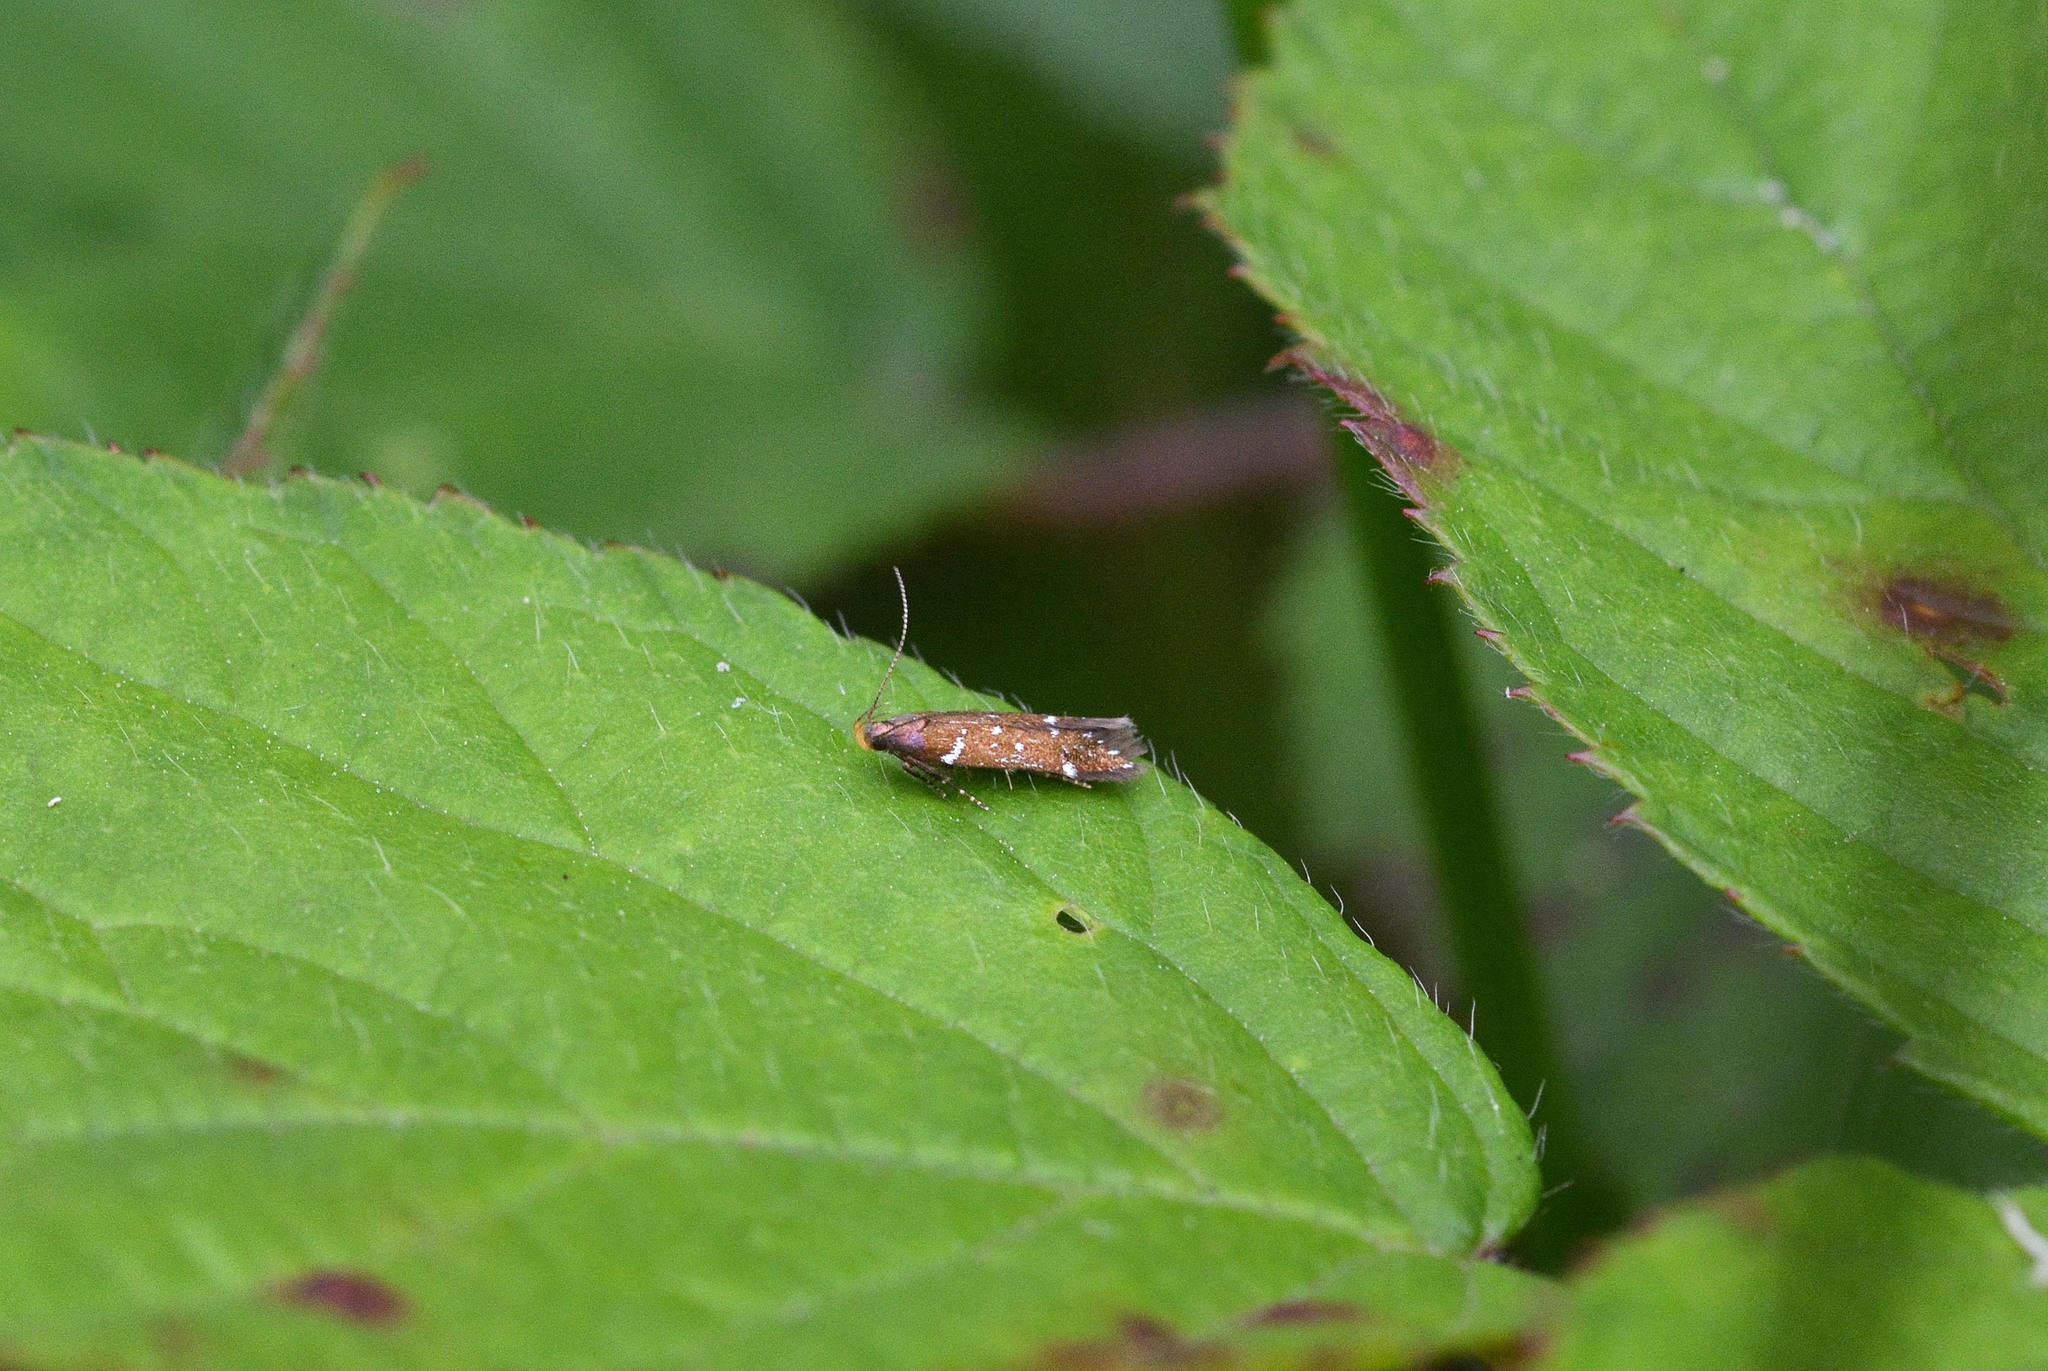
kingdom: Animalia
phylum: Arthropoda
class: Insecta
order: Lepidoptera
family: Gelechiidae
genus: Argolamprotes
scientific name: Argolamprotes micella
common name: Bright neb
